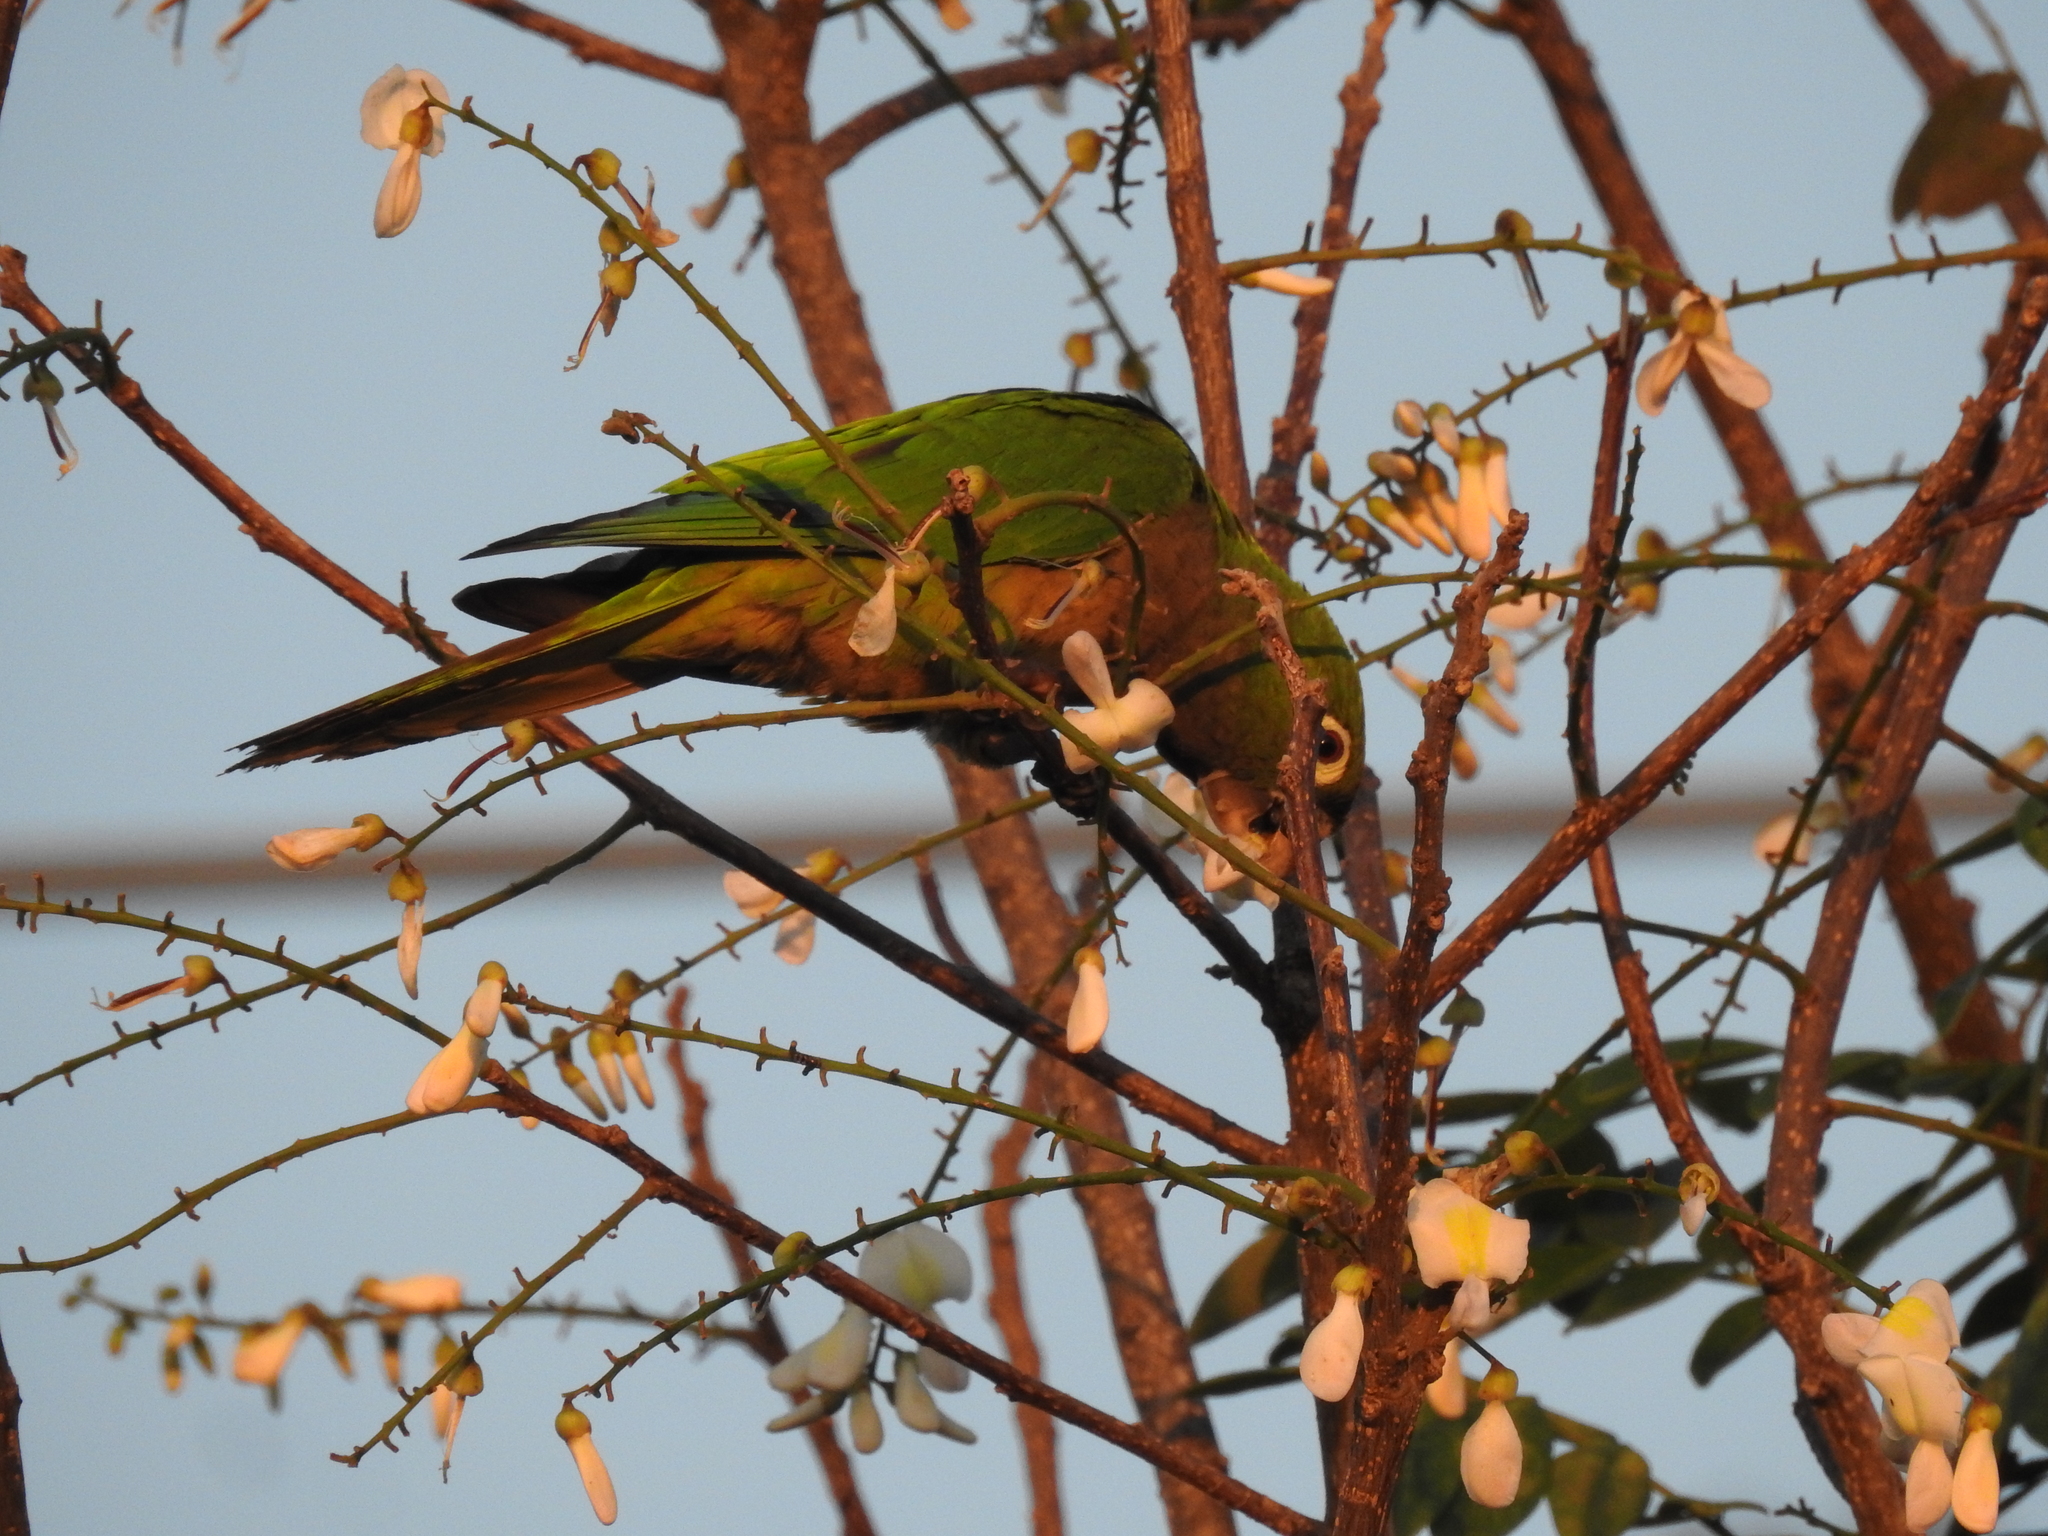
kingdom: Animalia
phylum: Chordata
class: Aves
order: Psittaciformes
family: Psittacidae
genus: Aratinga
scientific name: Aratinga nana
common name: Olive-throated parakeet
